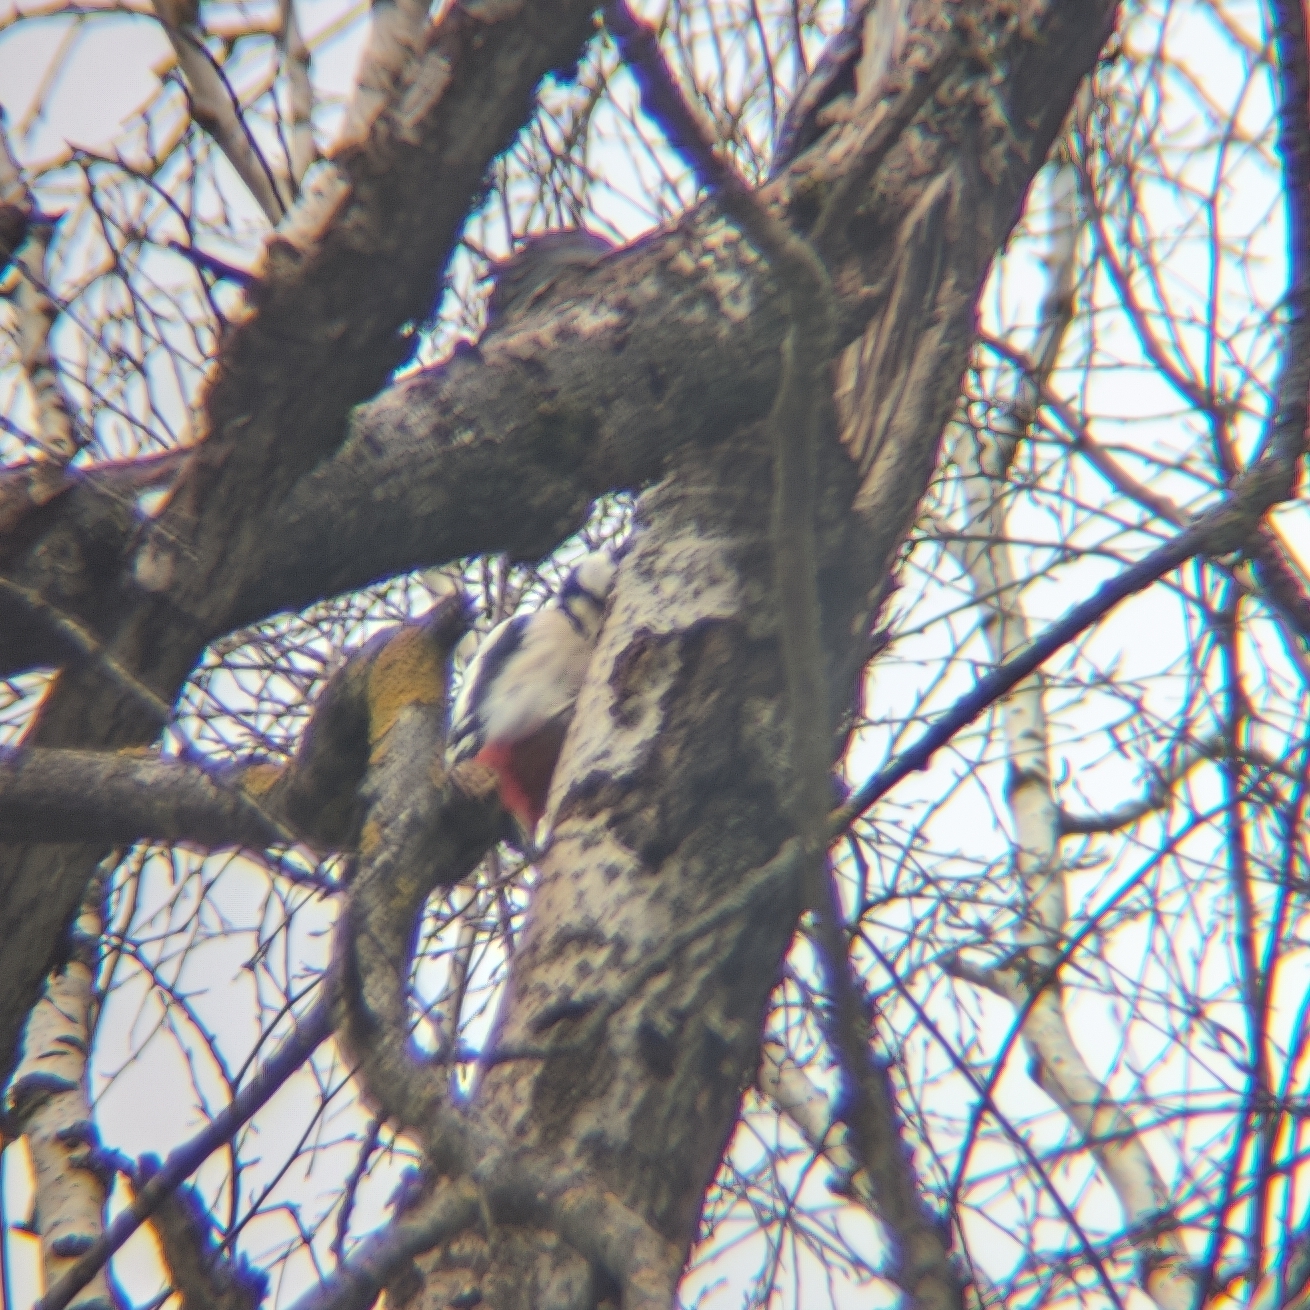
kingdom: Animalia
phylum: Chordata
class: Aves
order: Piciformes
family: Picidae
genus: Dendrocopos
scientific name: Dendrocopos major
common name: Great spotted woodpecker
